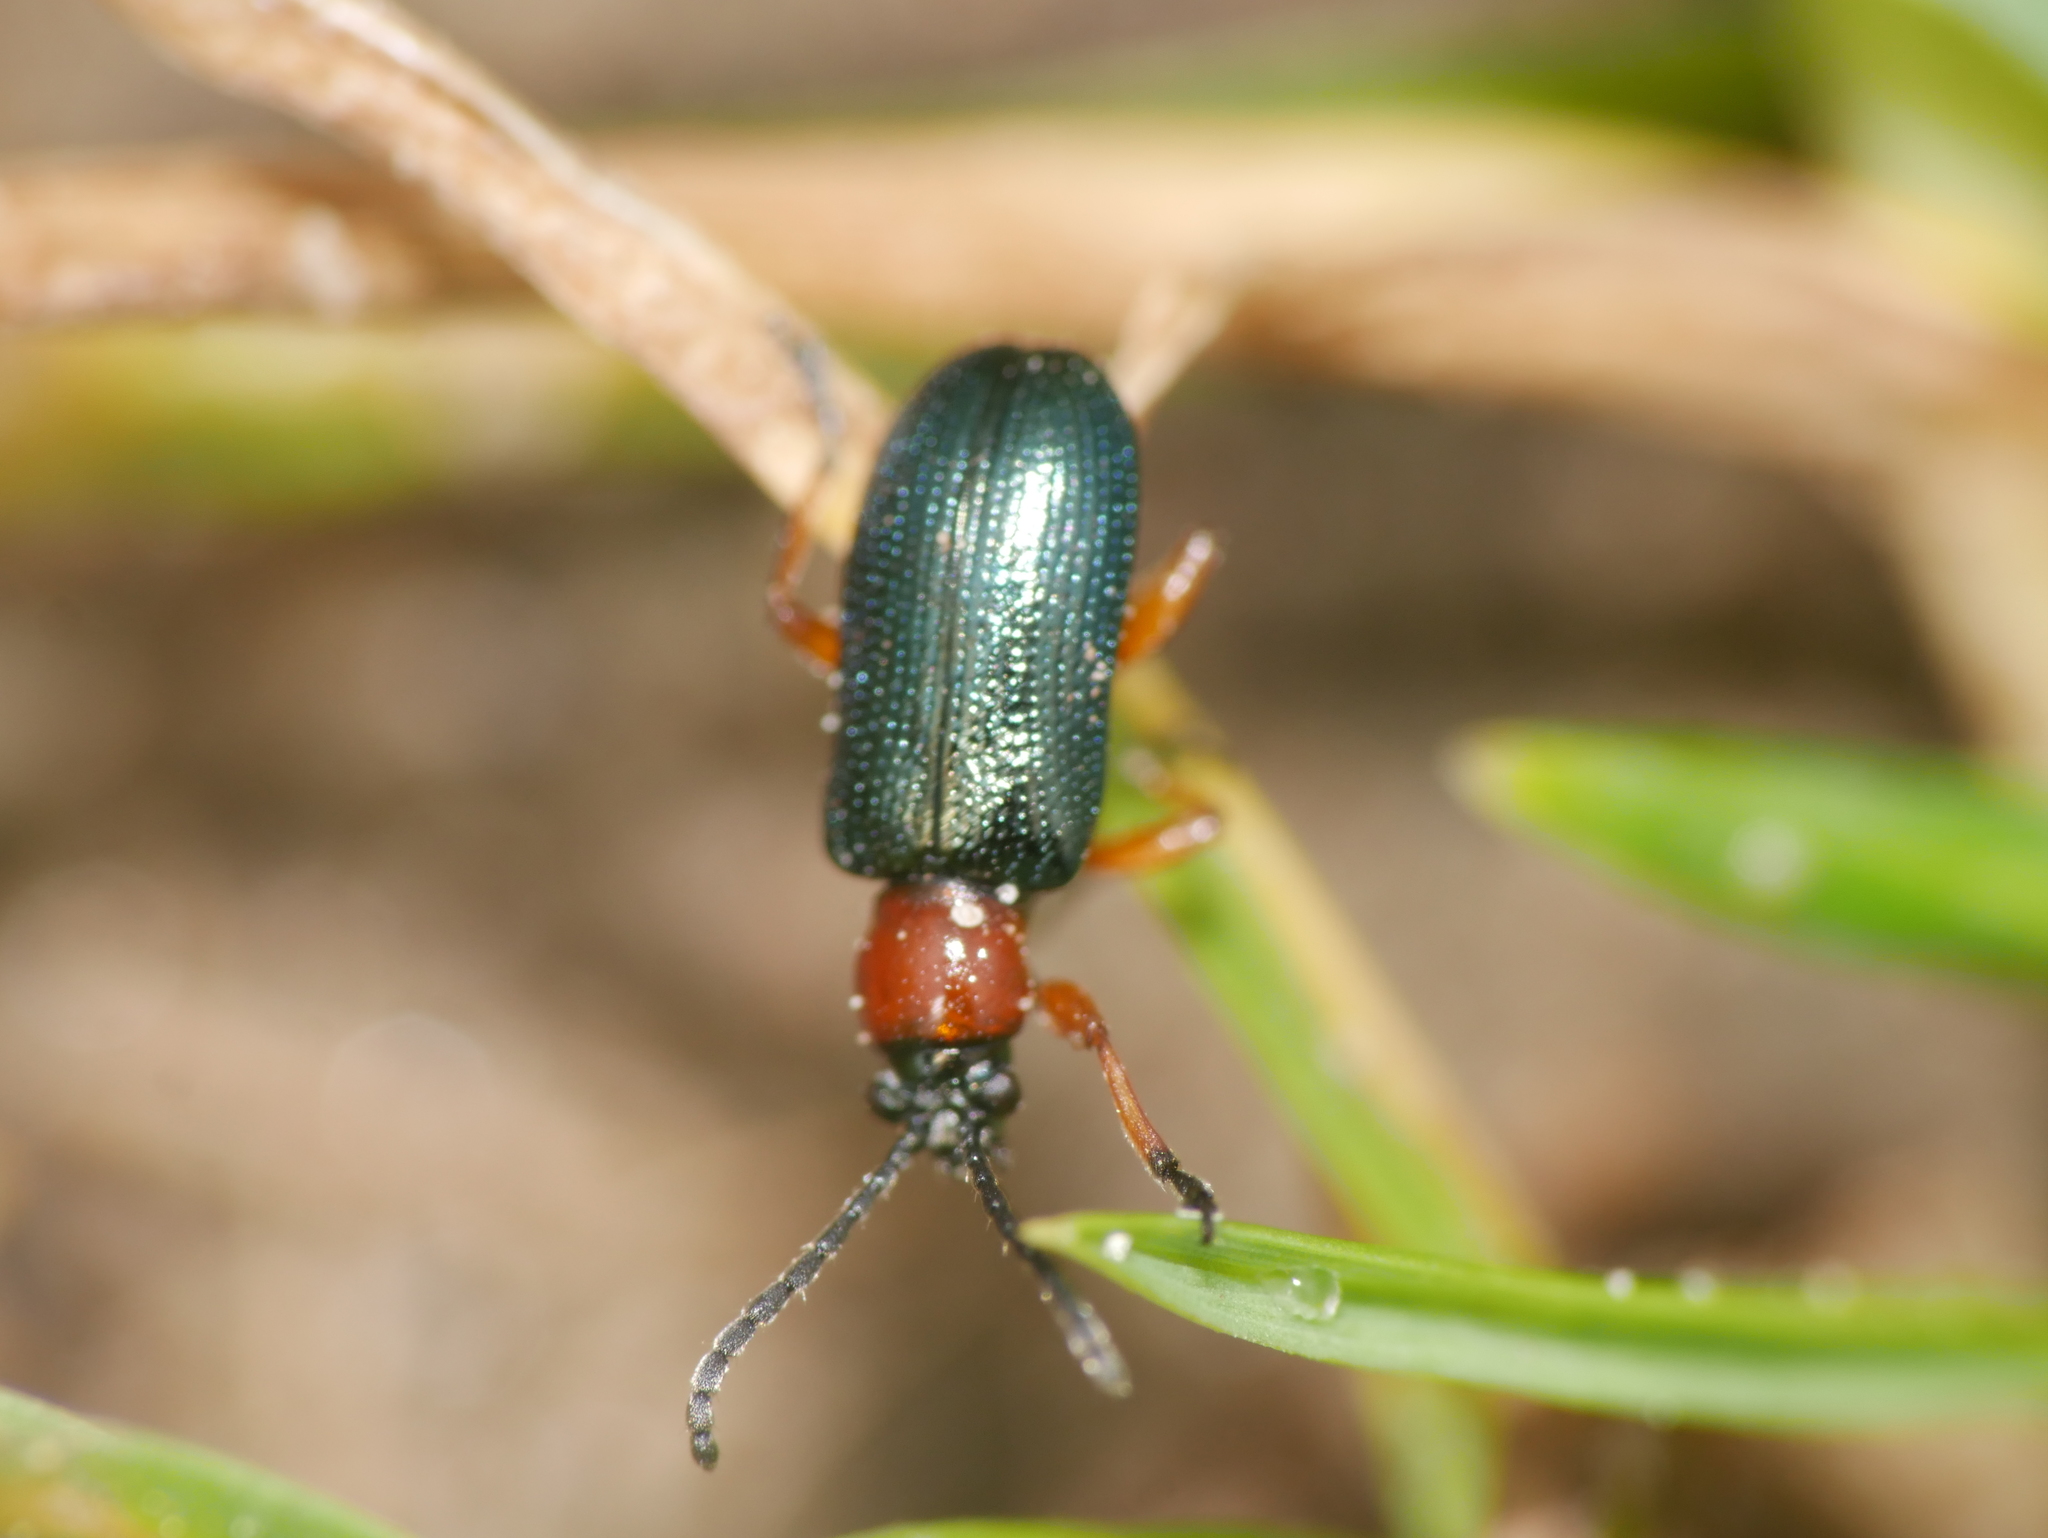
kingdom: Animalia
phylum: Arthropoda
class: Insecta
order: Coleoptera
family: Chrysomelidae
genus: Oulema
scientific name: Oulema
